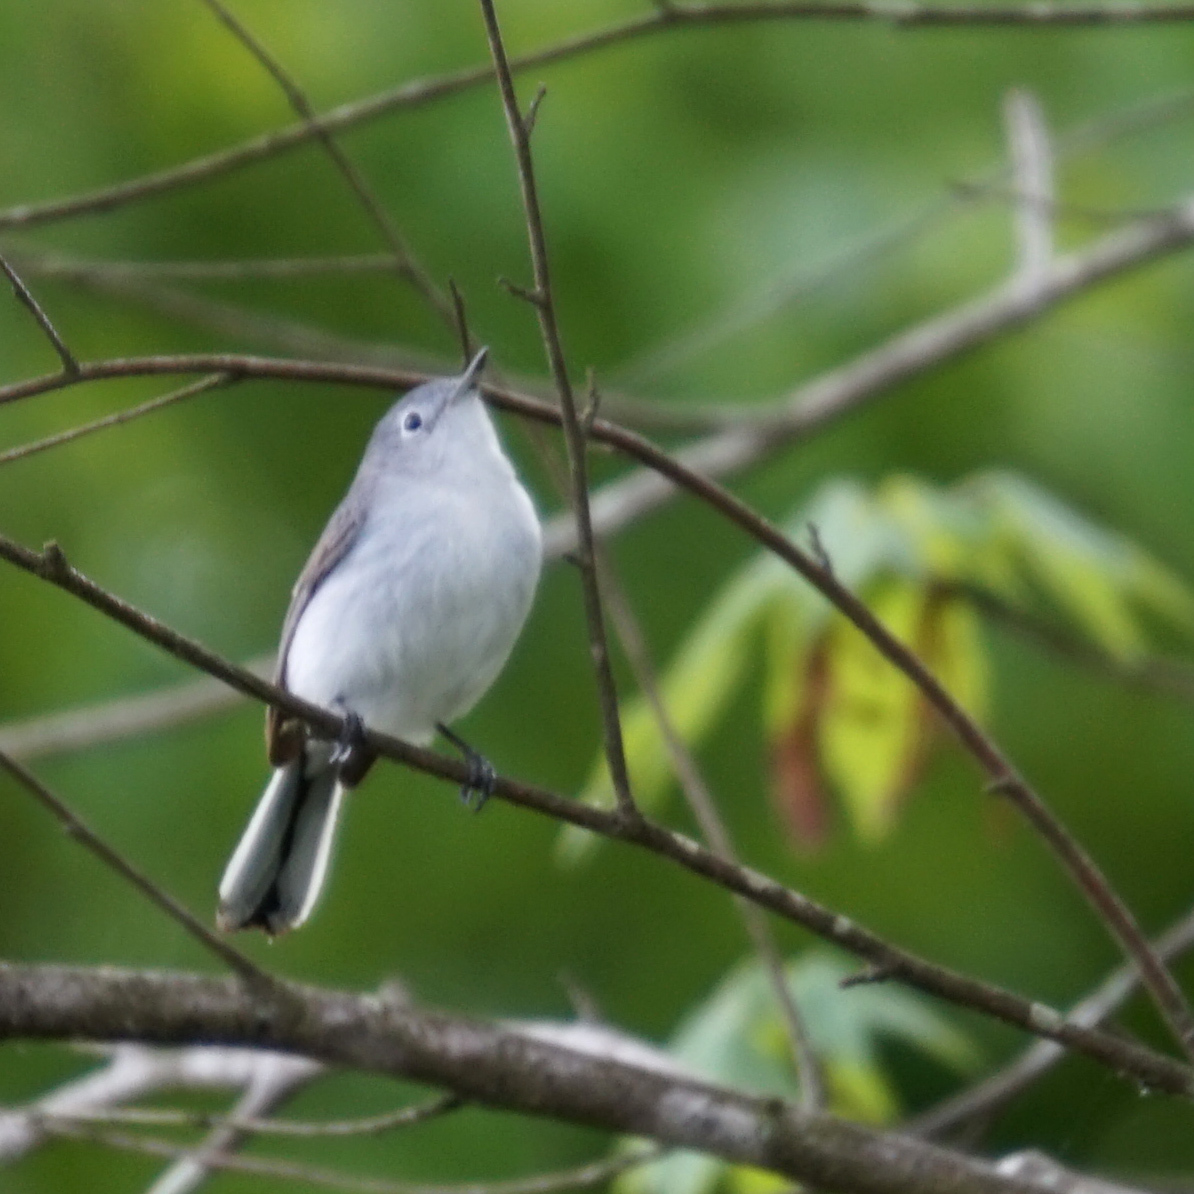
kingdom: Animalia
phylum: Chordata
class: Aves
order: Passeriformes
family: Polioptilidae
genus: Polioptila
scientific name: Polioptila caerulea
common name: Blue-gray gnatcatcher
